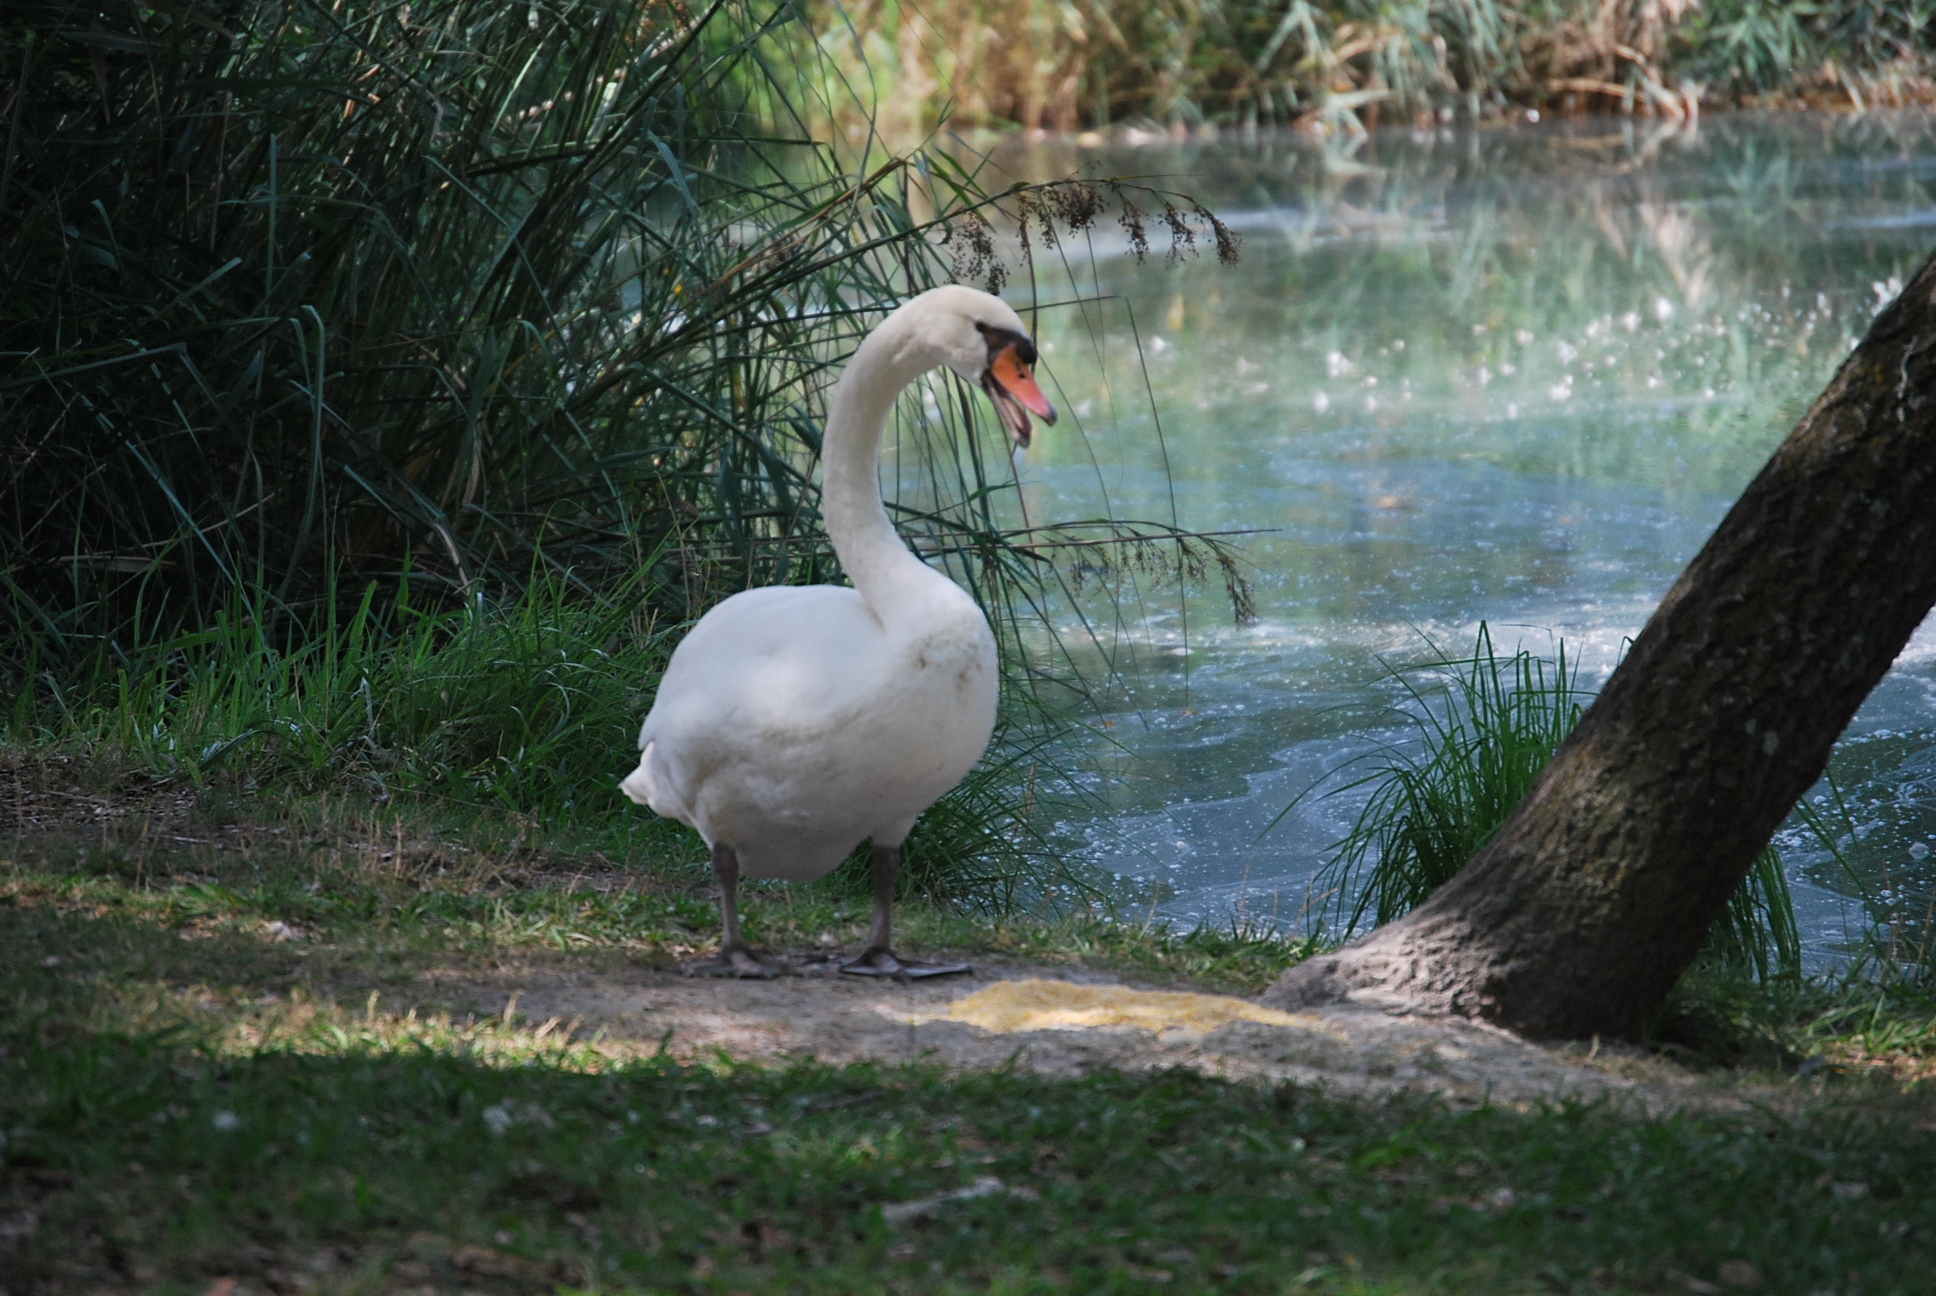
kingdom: Animalia
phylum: Chordata
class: Aves
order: Anseriformes
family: Anatidae
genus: Cygnus
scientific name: Cygnus olor
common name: Mute swan
